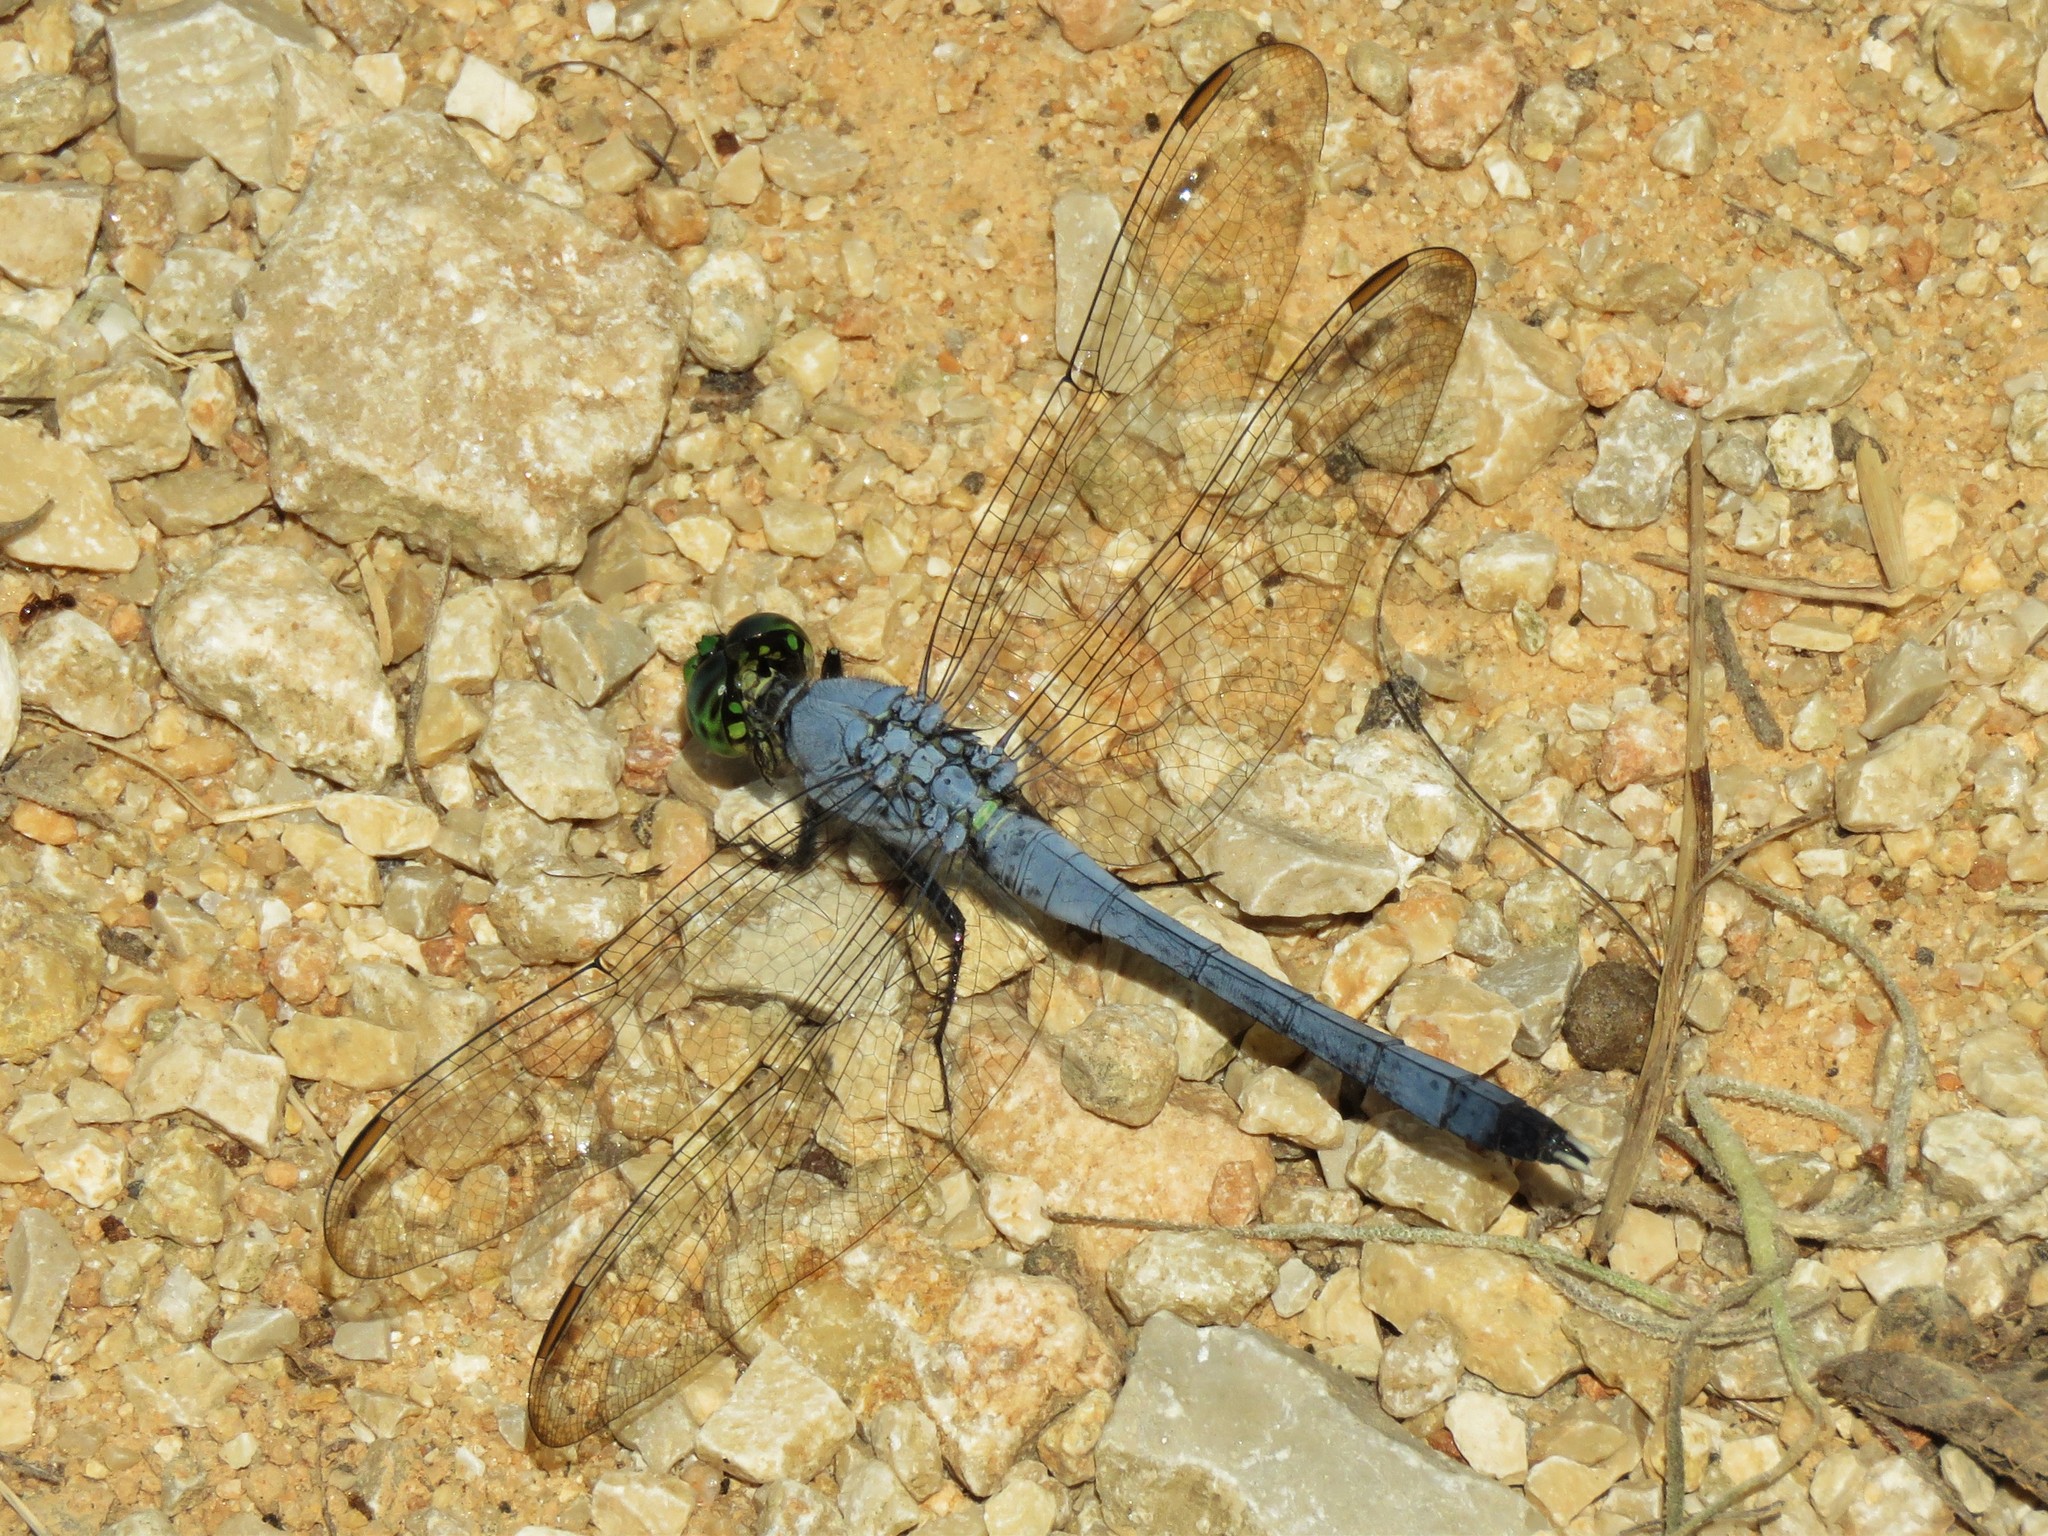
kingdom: Animalia
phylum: Arthropoda
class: Insecta
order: Odonata
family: Libellulidae
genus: Erythemis
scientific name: Erythemis simplicicollis
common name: Eastern pondhawk
